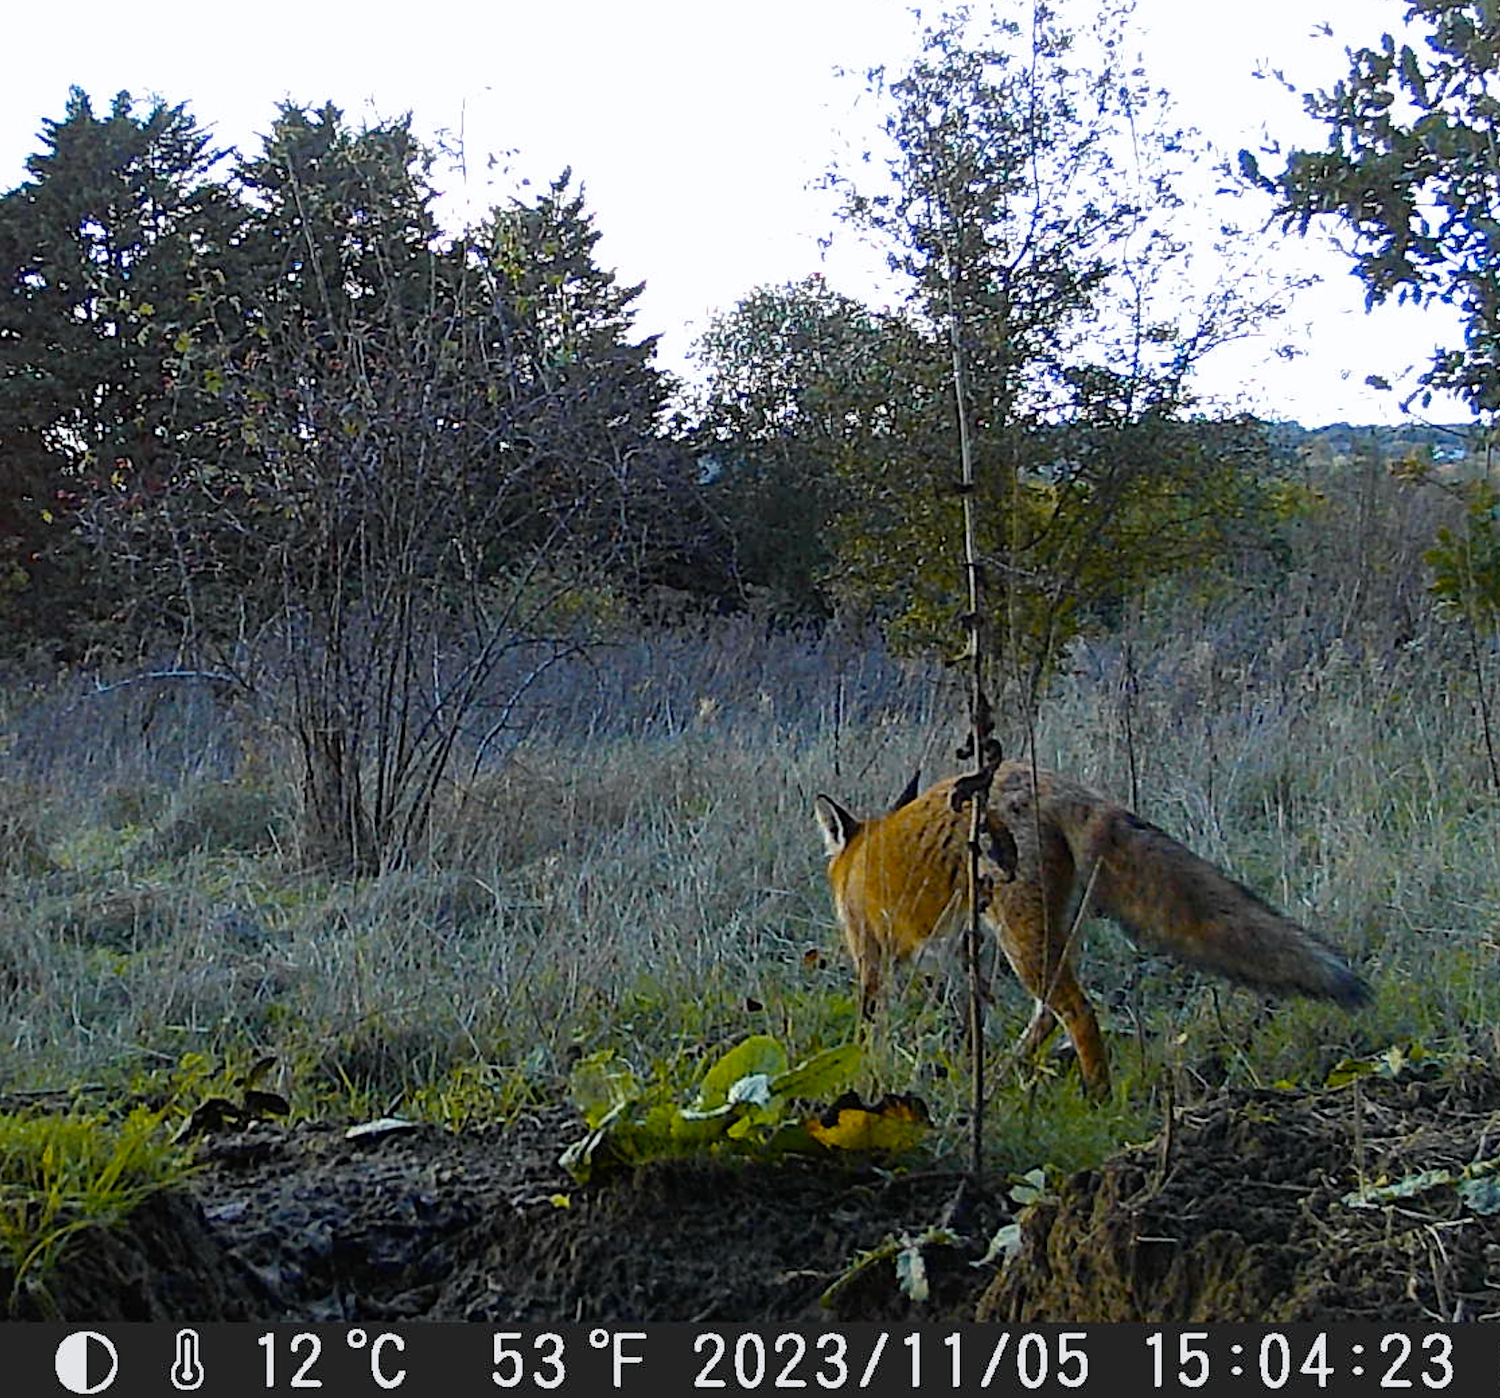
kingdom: Animalia
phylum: Chordata
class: Mammalia
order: Carnivora
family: Canidae
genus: Vulpes
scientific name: Vulpes vulpes
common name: Red fox
